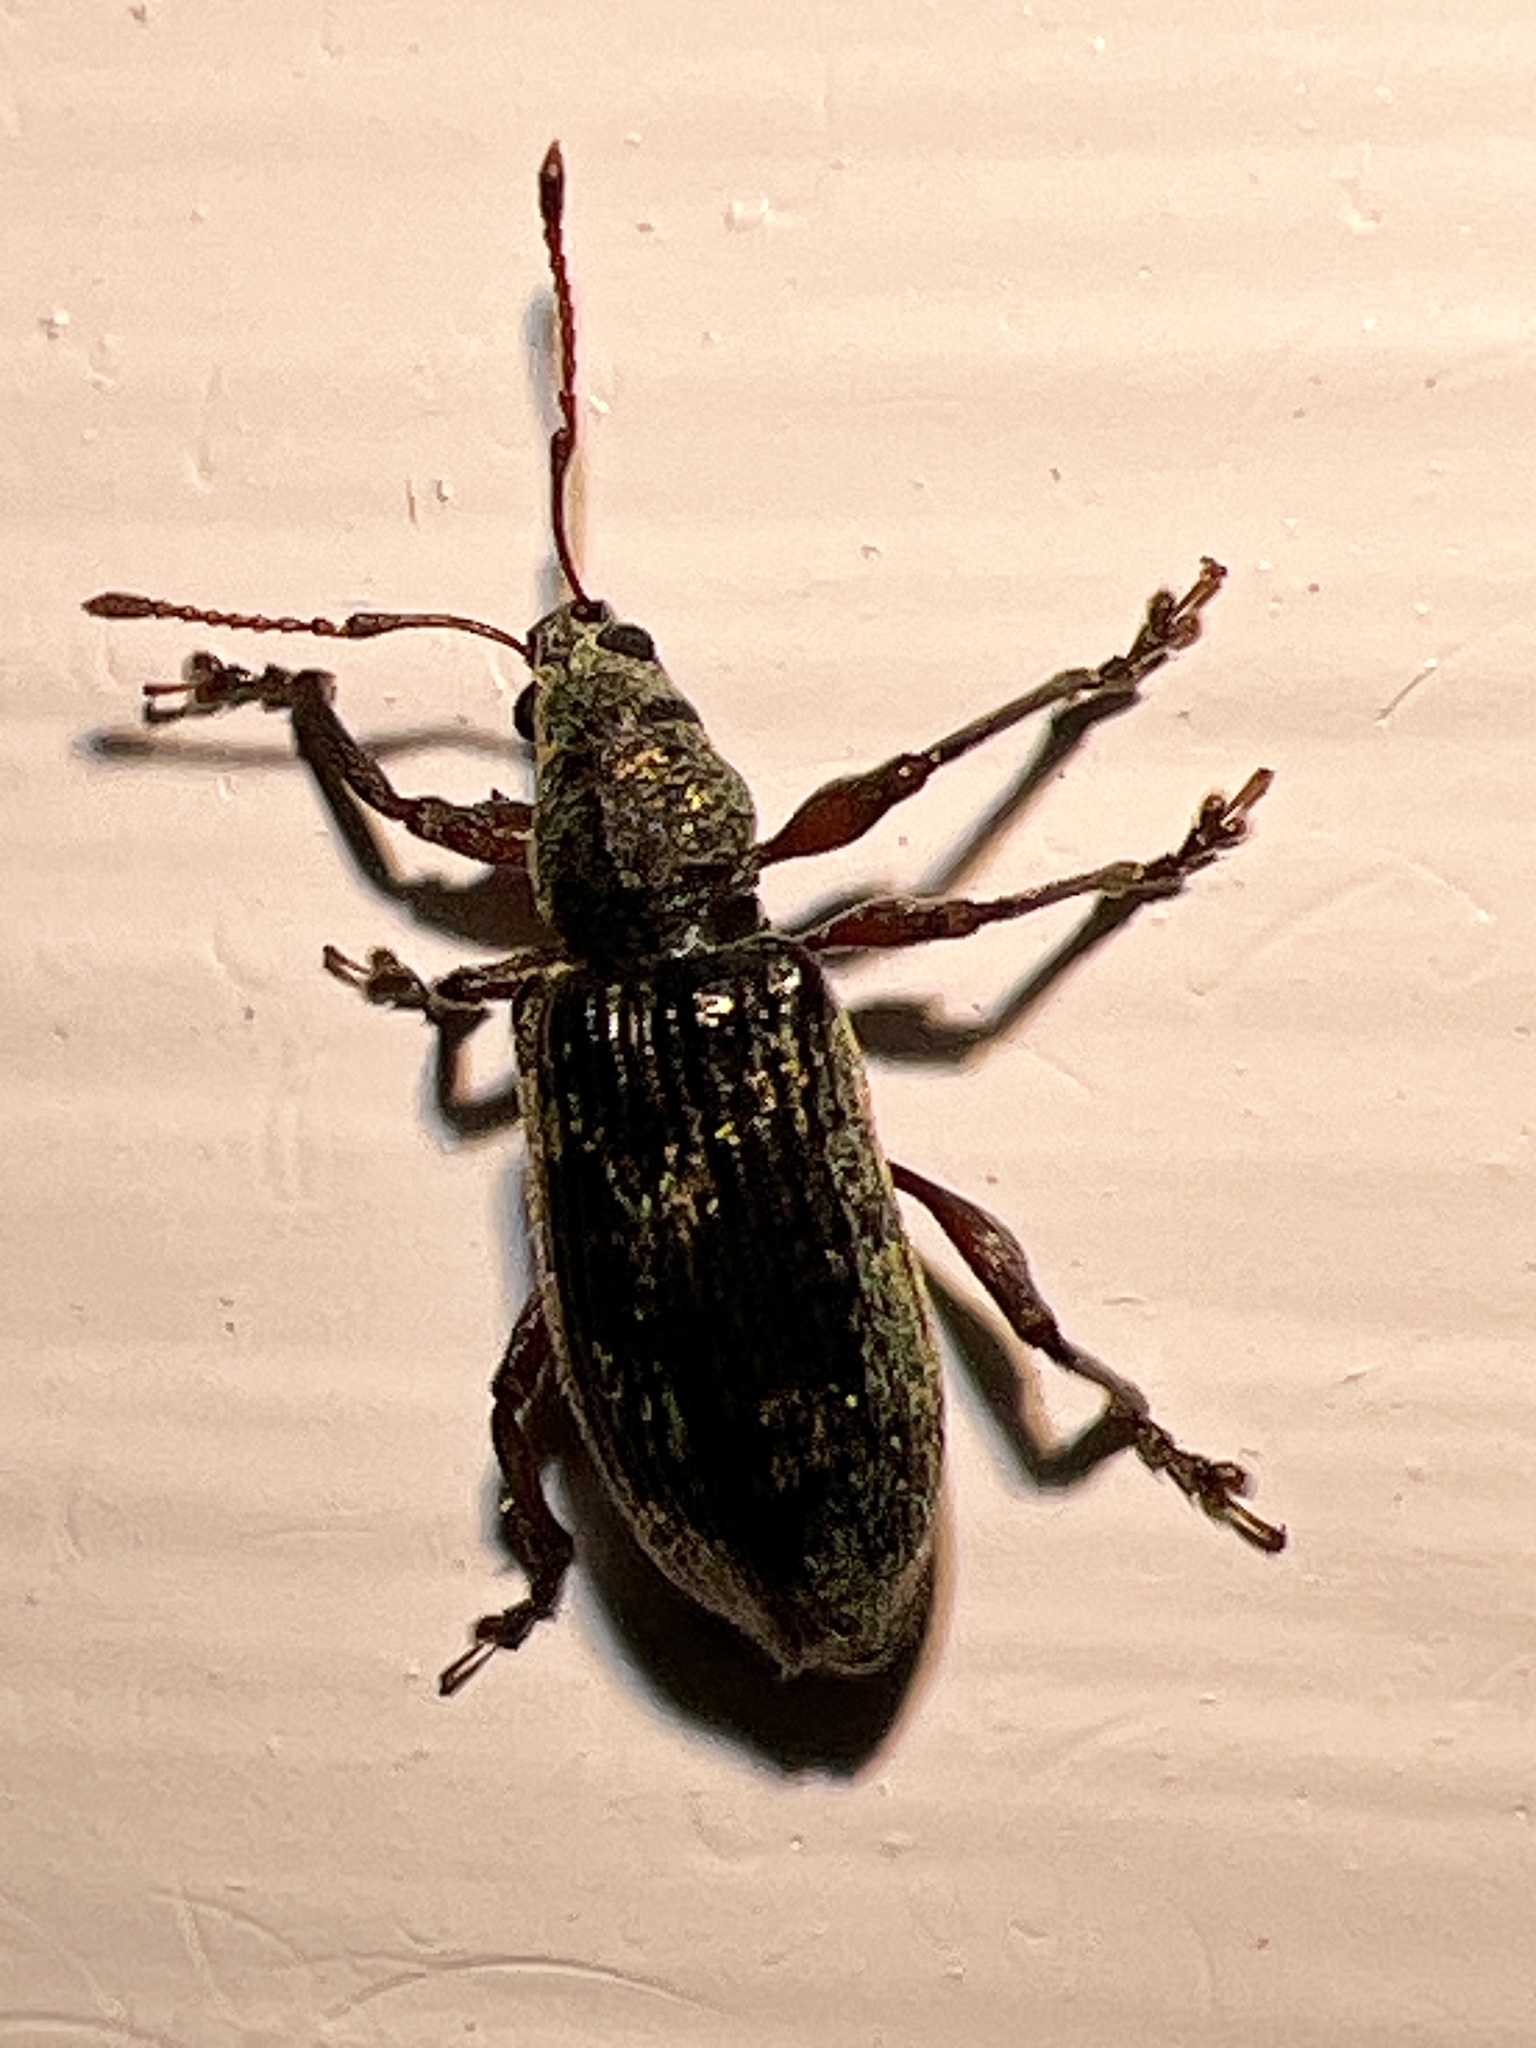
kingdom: Animalia
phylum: Arthropoda
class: Insecta
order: Coleoptera
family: Curculionidae
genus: Parascythopus
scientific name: Parascythopus intrusus
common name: Weevil
